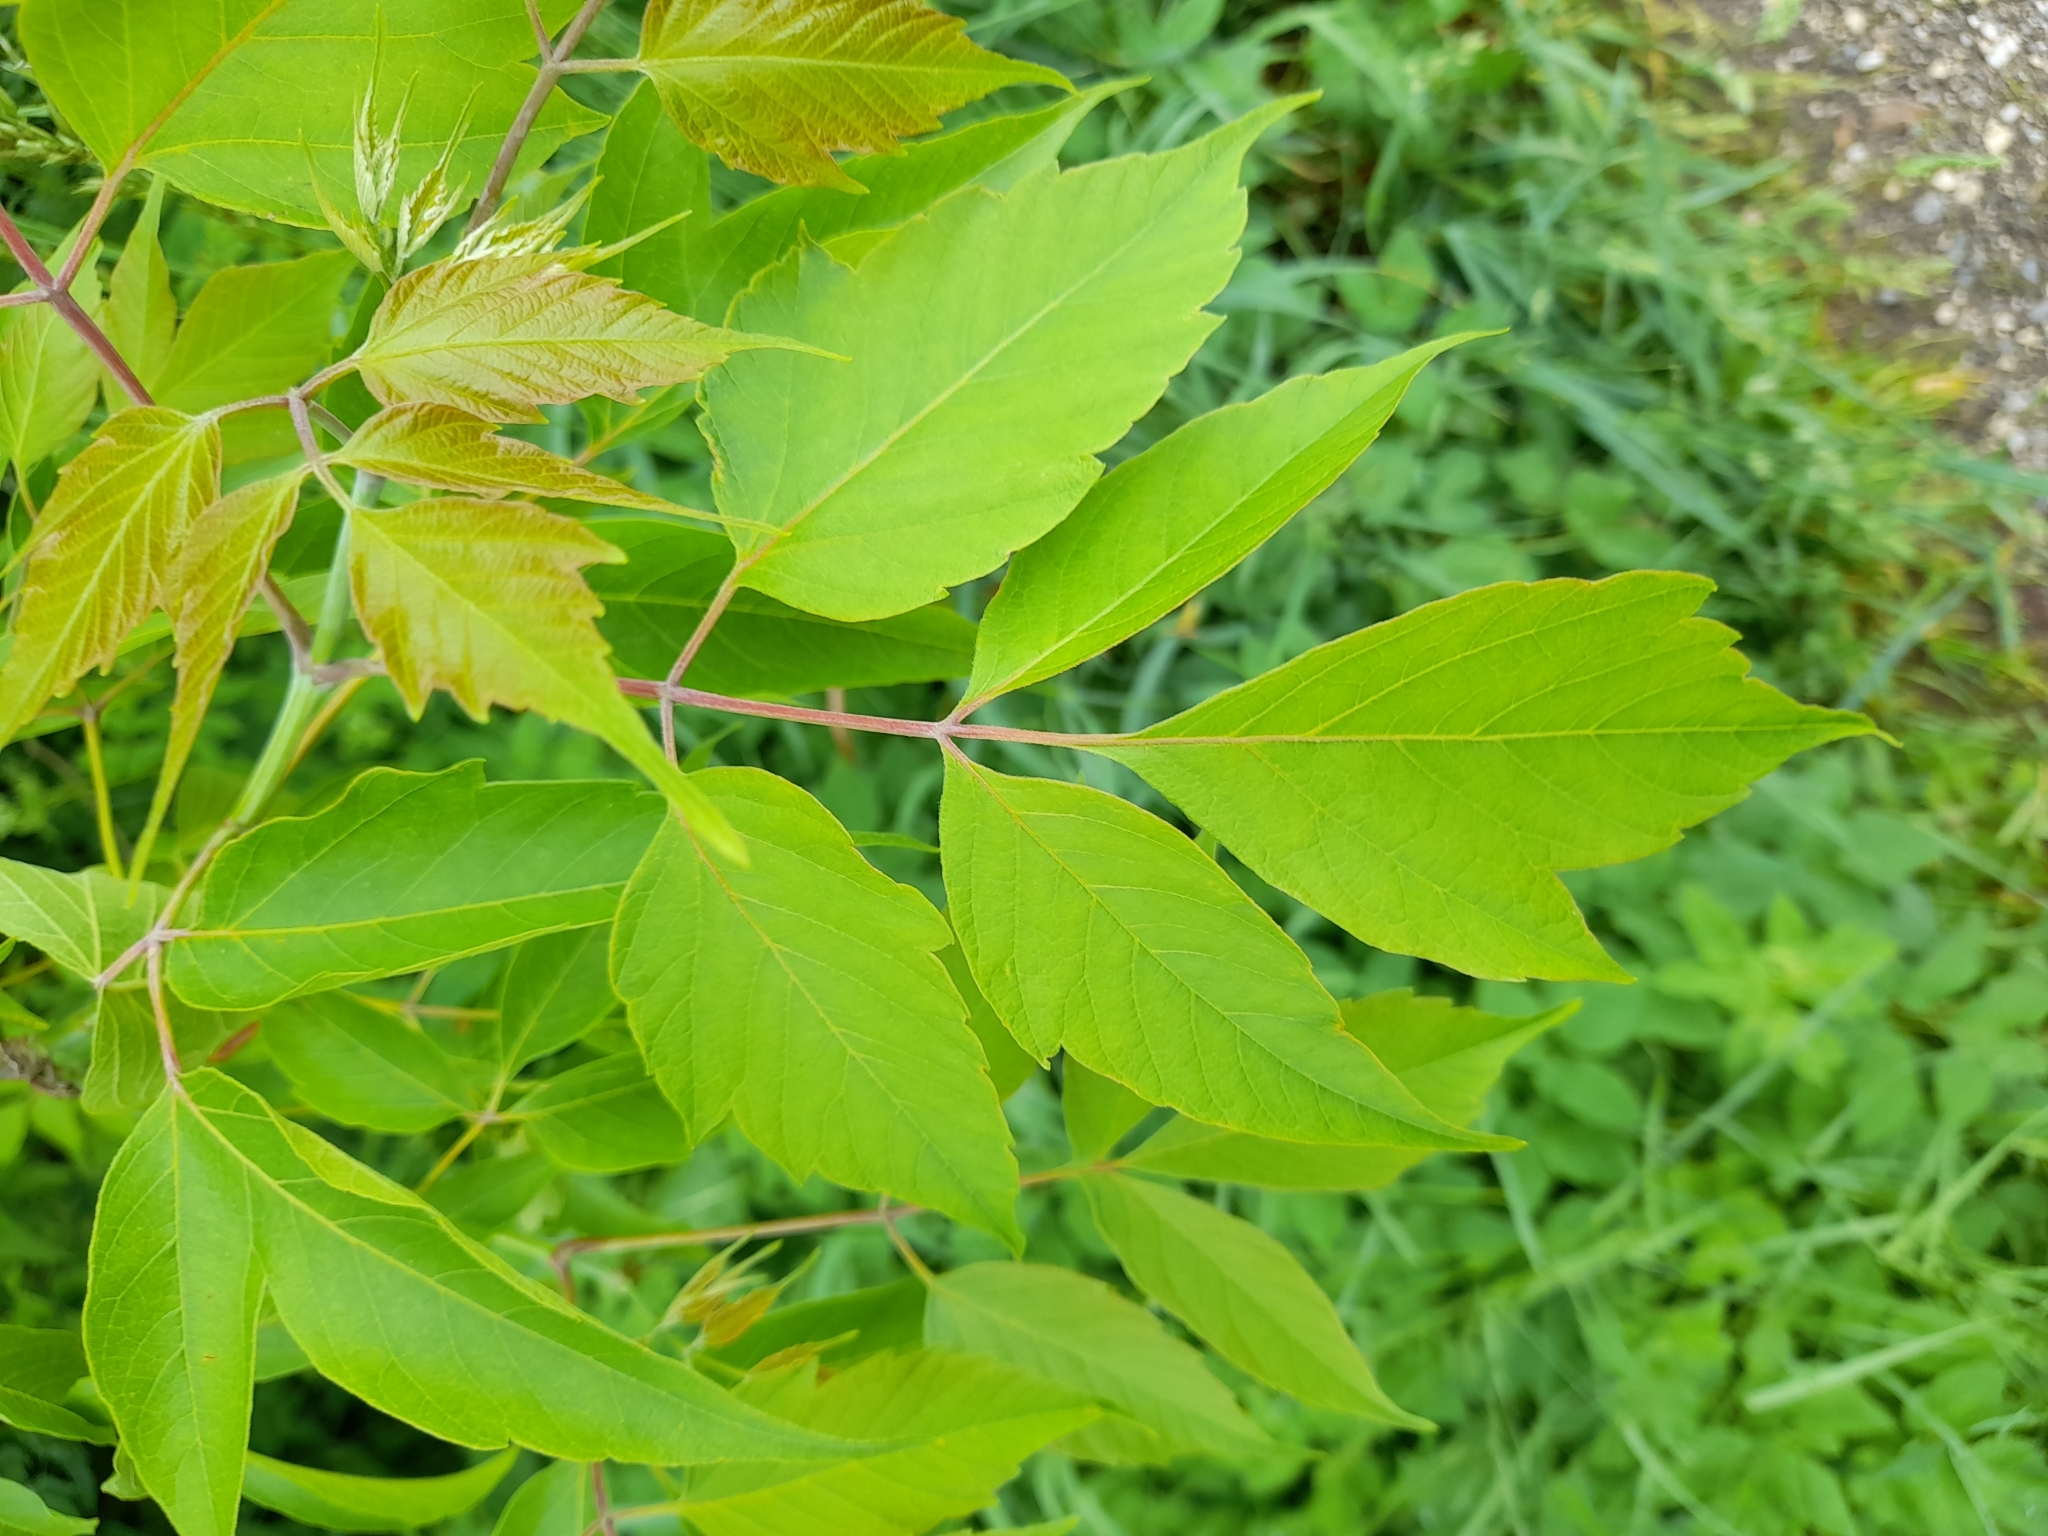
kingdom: Plantae
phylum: Tracheophyta
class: Magnoliopsida
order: Sapindales
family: Sapindaceae
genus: Acer
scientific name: Acer negundo
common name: Ashleaf maple
